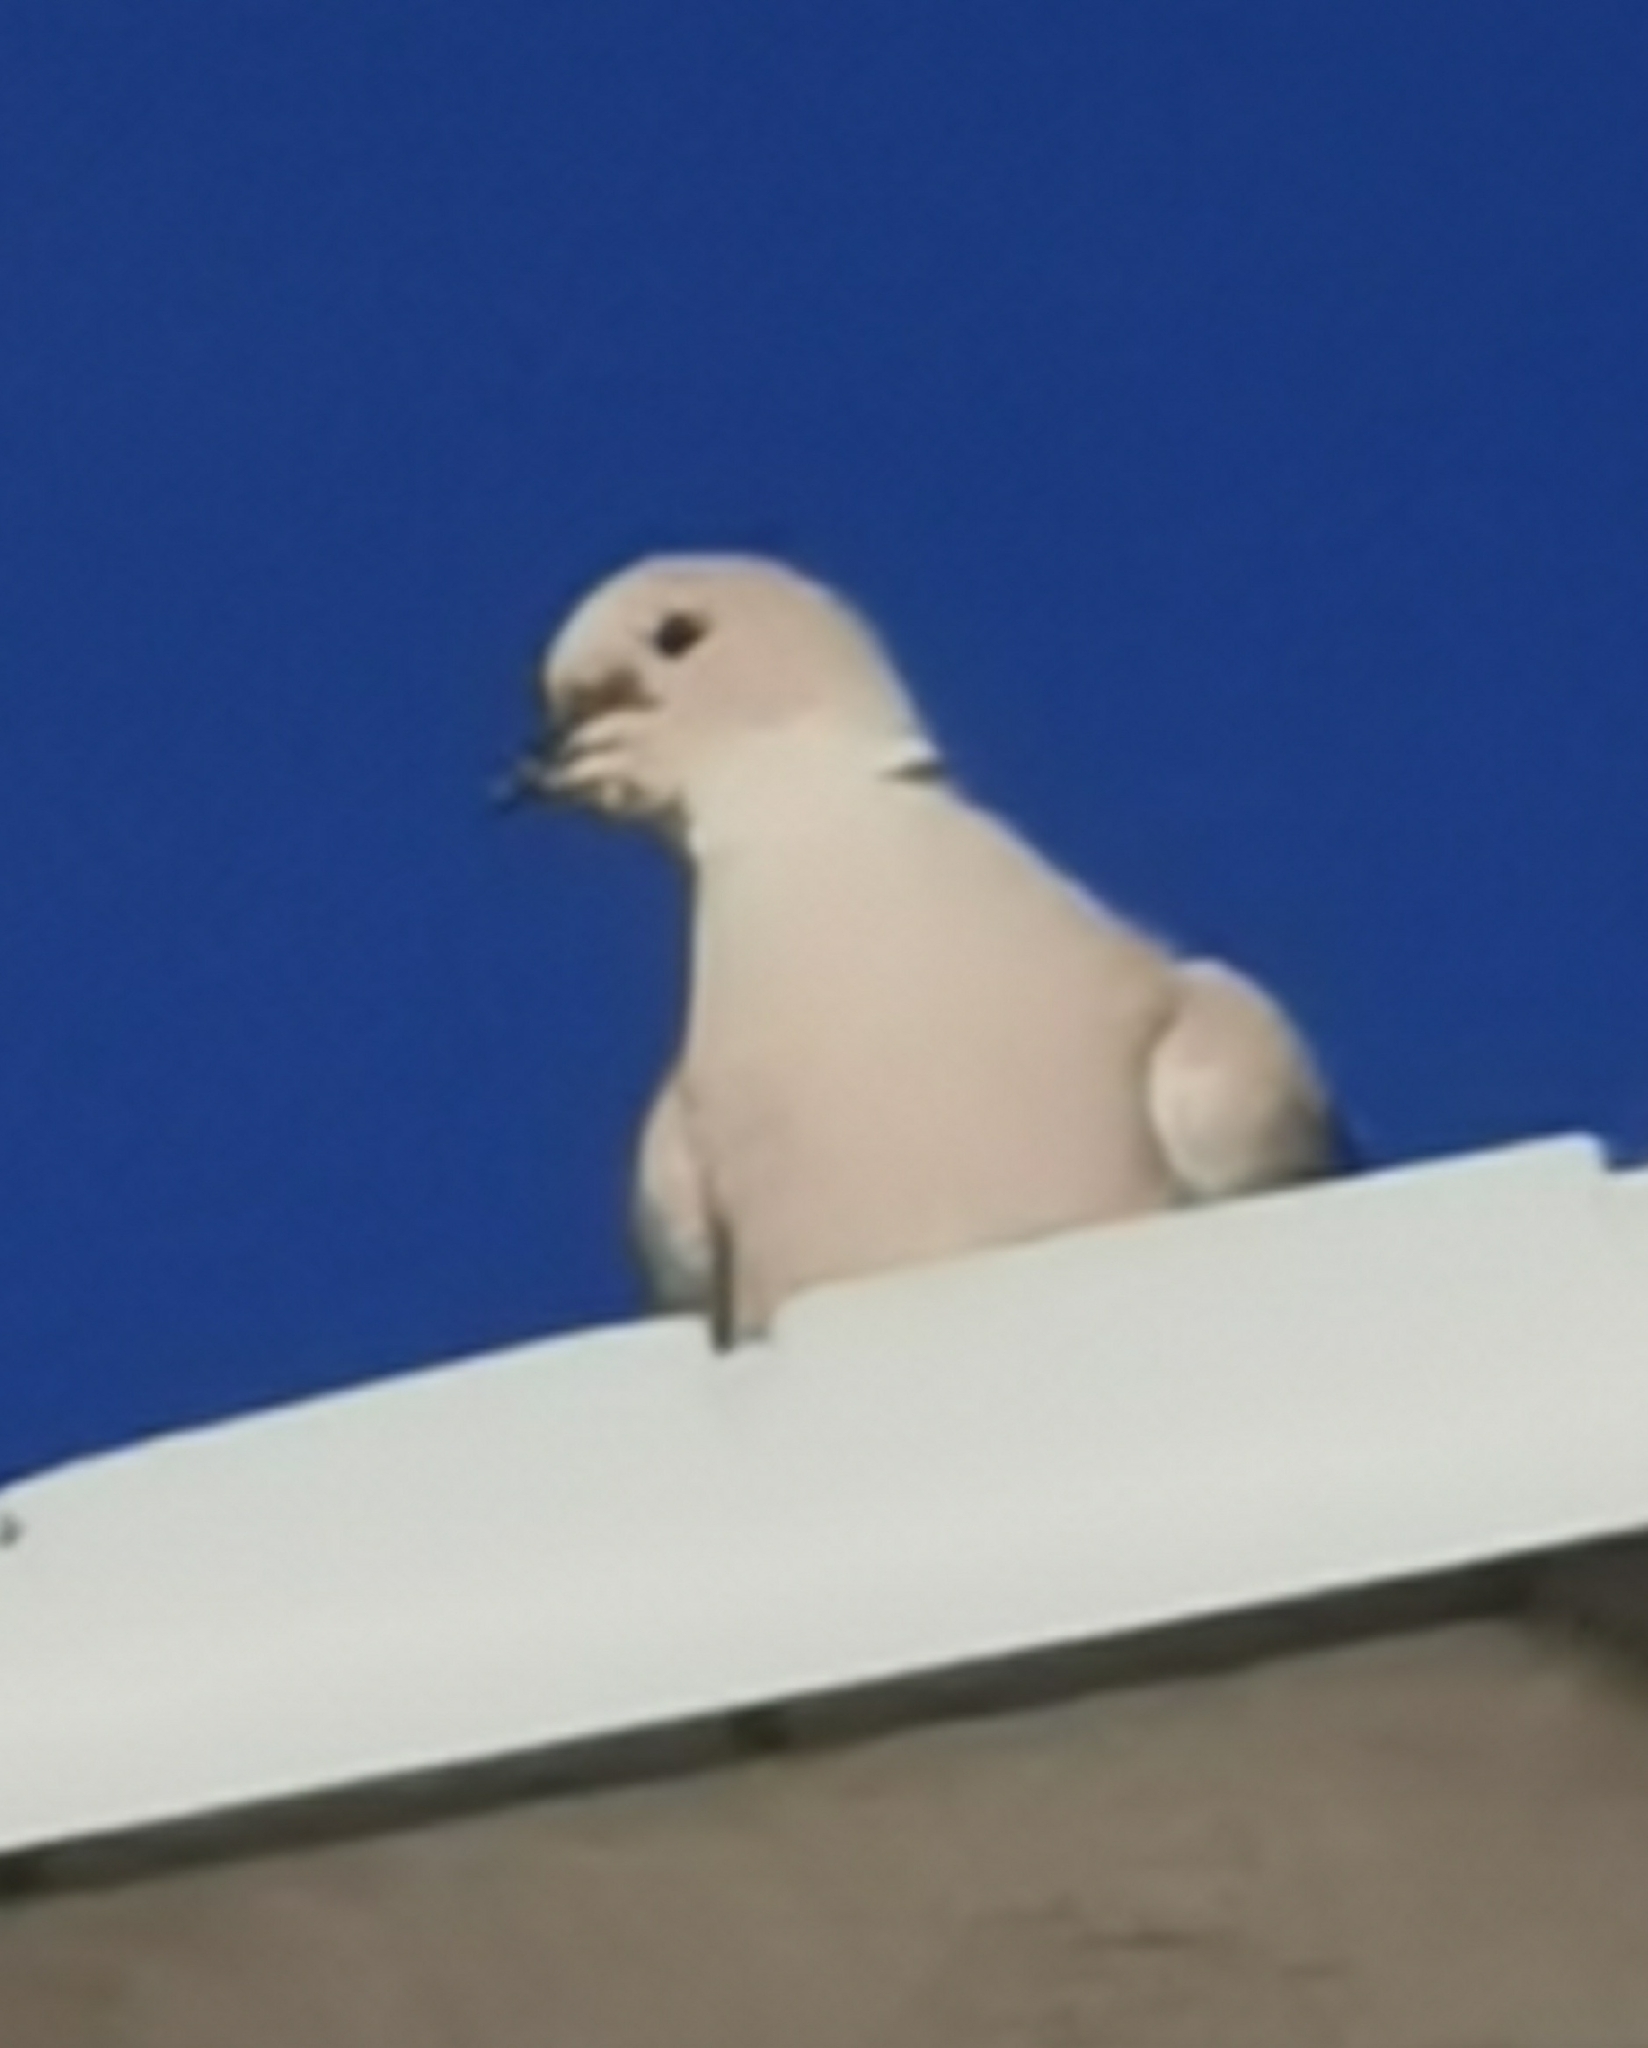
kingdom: Animalia
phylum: Chordata
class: Aves
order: Columbiformes
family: Columbidae
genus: Streptopelia
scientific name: Streptopelia decaocto
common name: Eurasian collared dove
